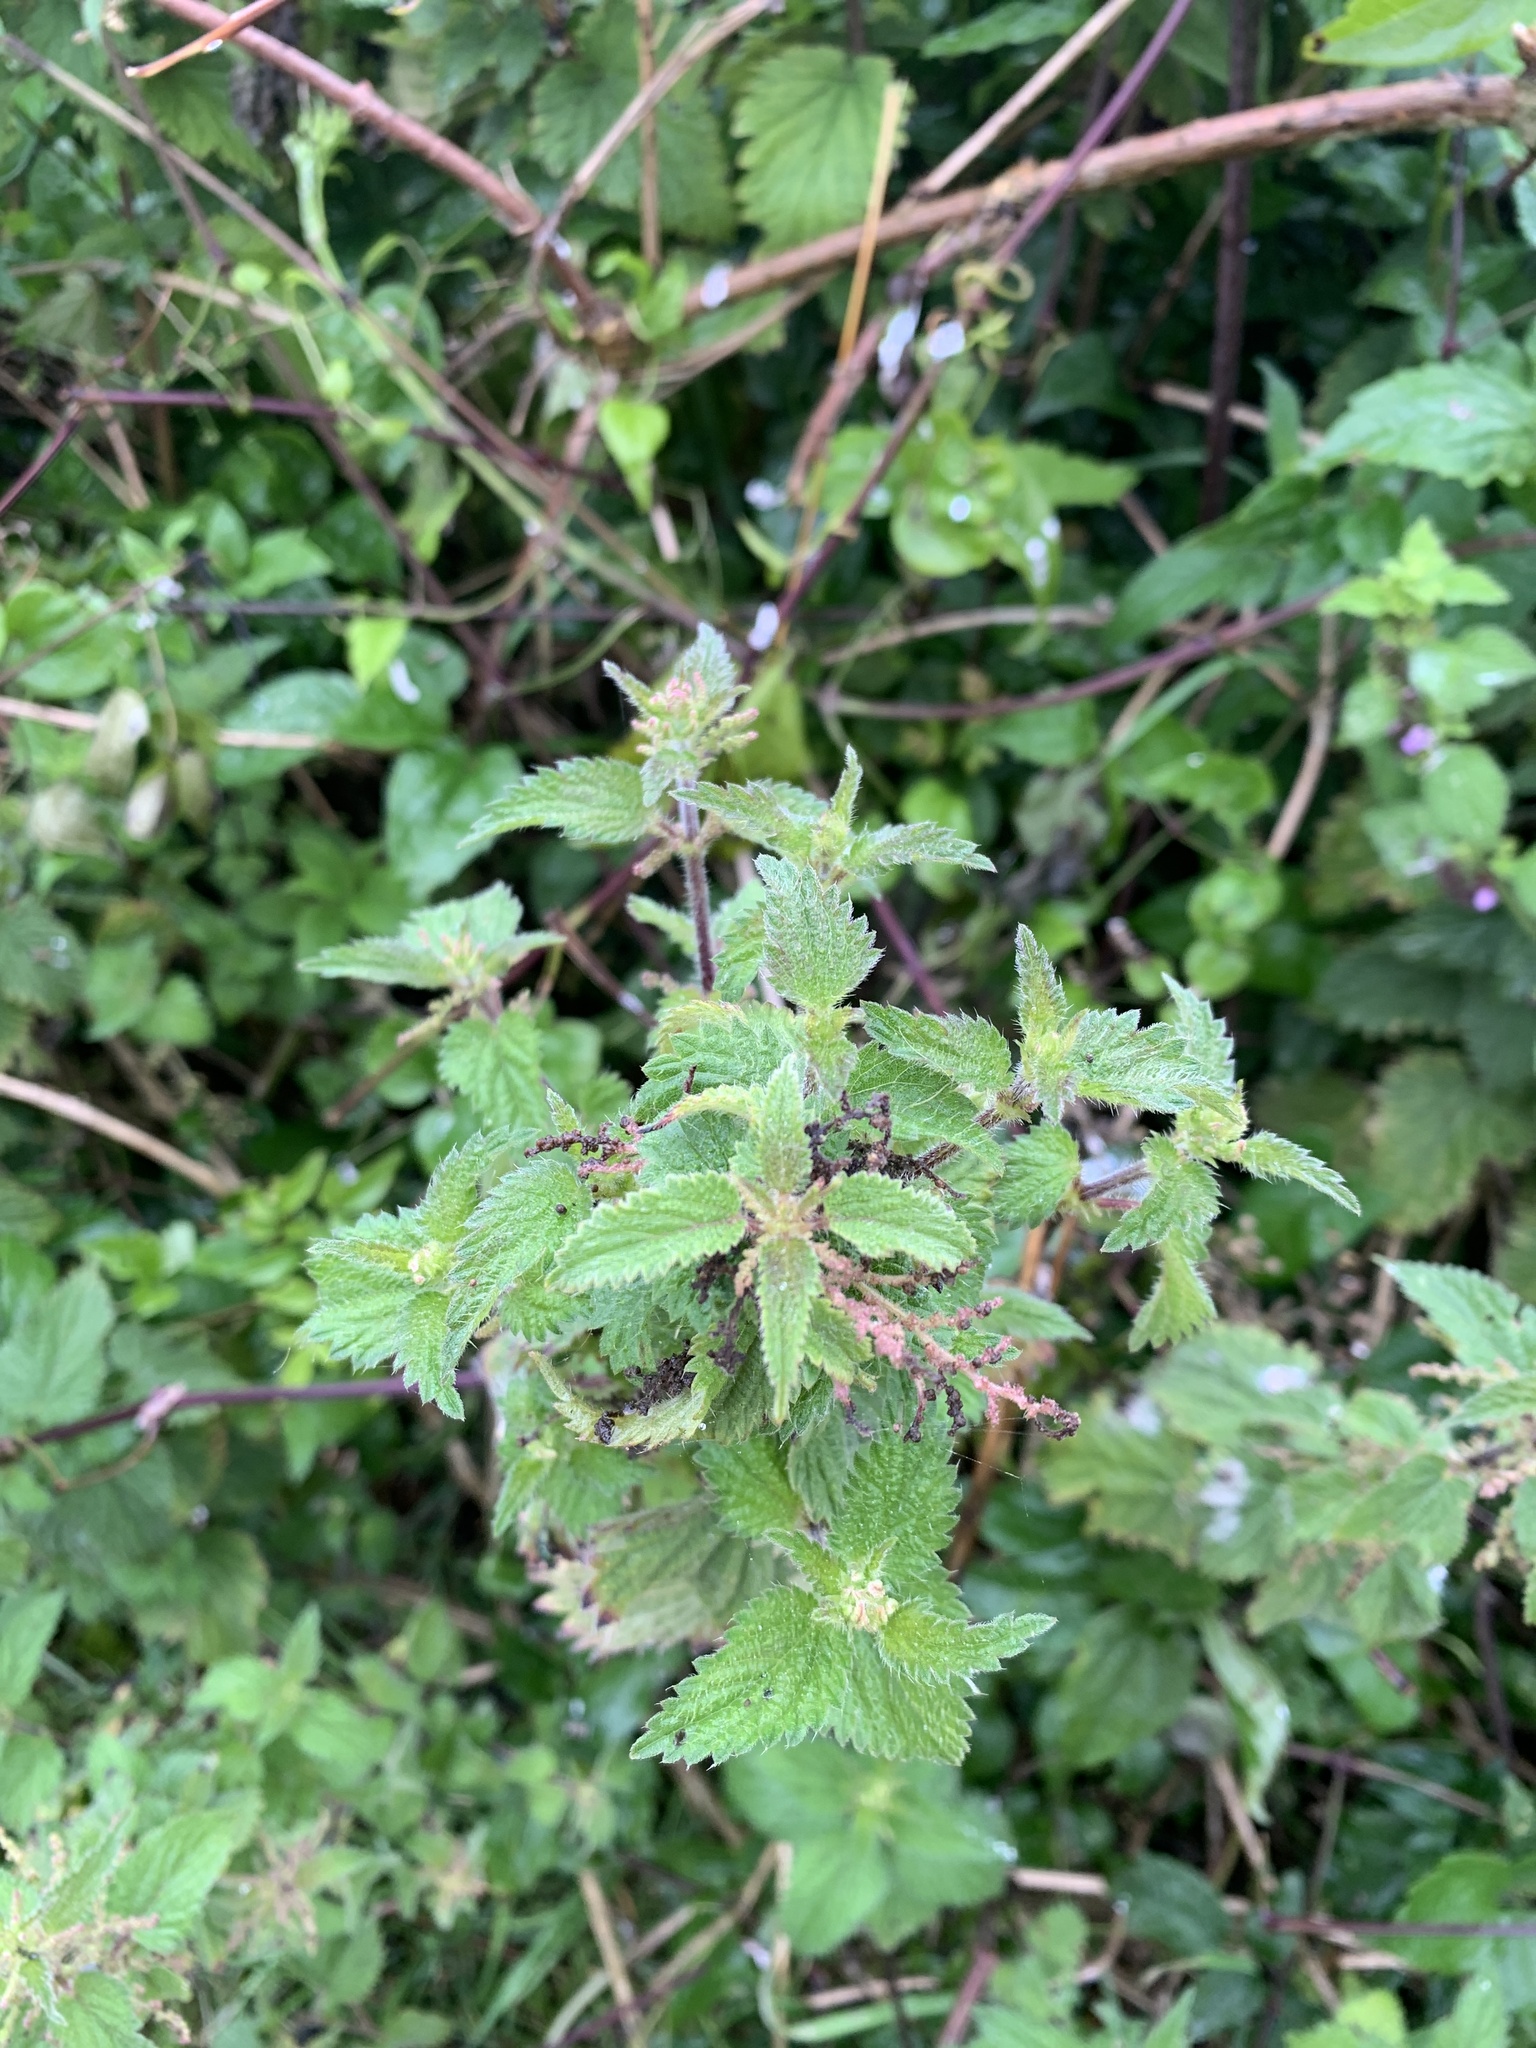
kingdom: Plantae
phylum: Tracheophyta
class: Magnoliopsida
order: Rosales
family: Urticaceae
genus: Urtica
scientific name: Urtica dioica
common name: Common nettle
